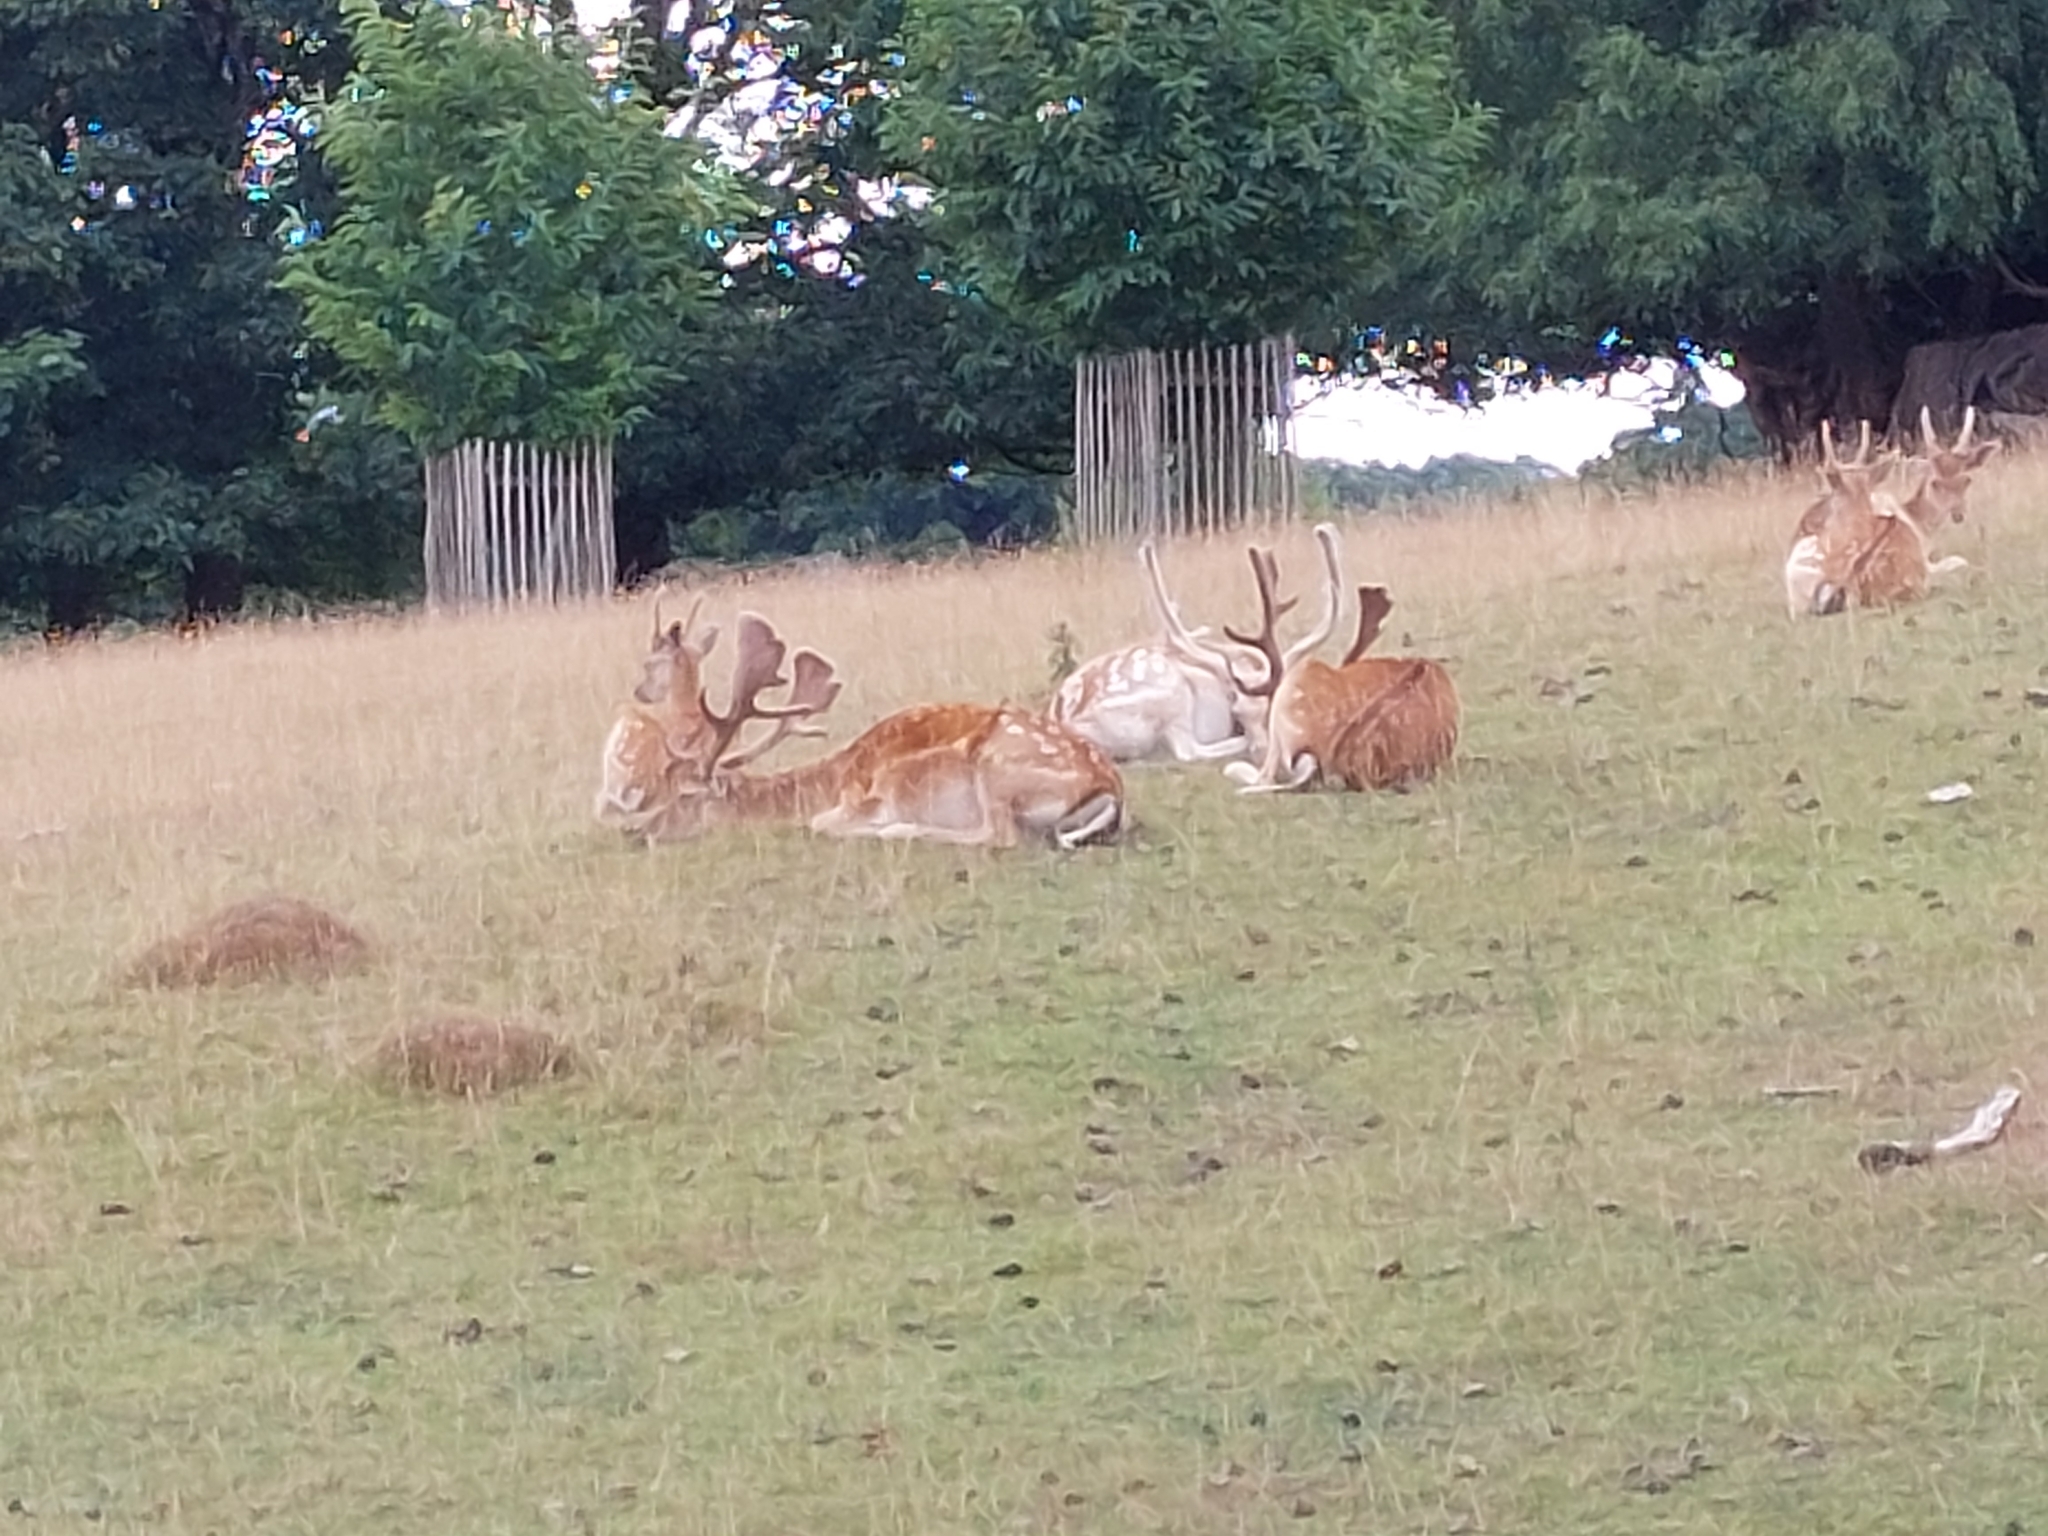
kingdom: Animalia
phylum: Chordata
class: Mammalia
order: Artiodactyla
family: Cervidae
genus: Dama
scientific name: Dama dama
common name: Fallow deer
